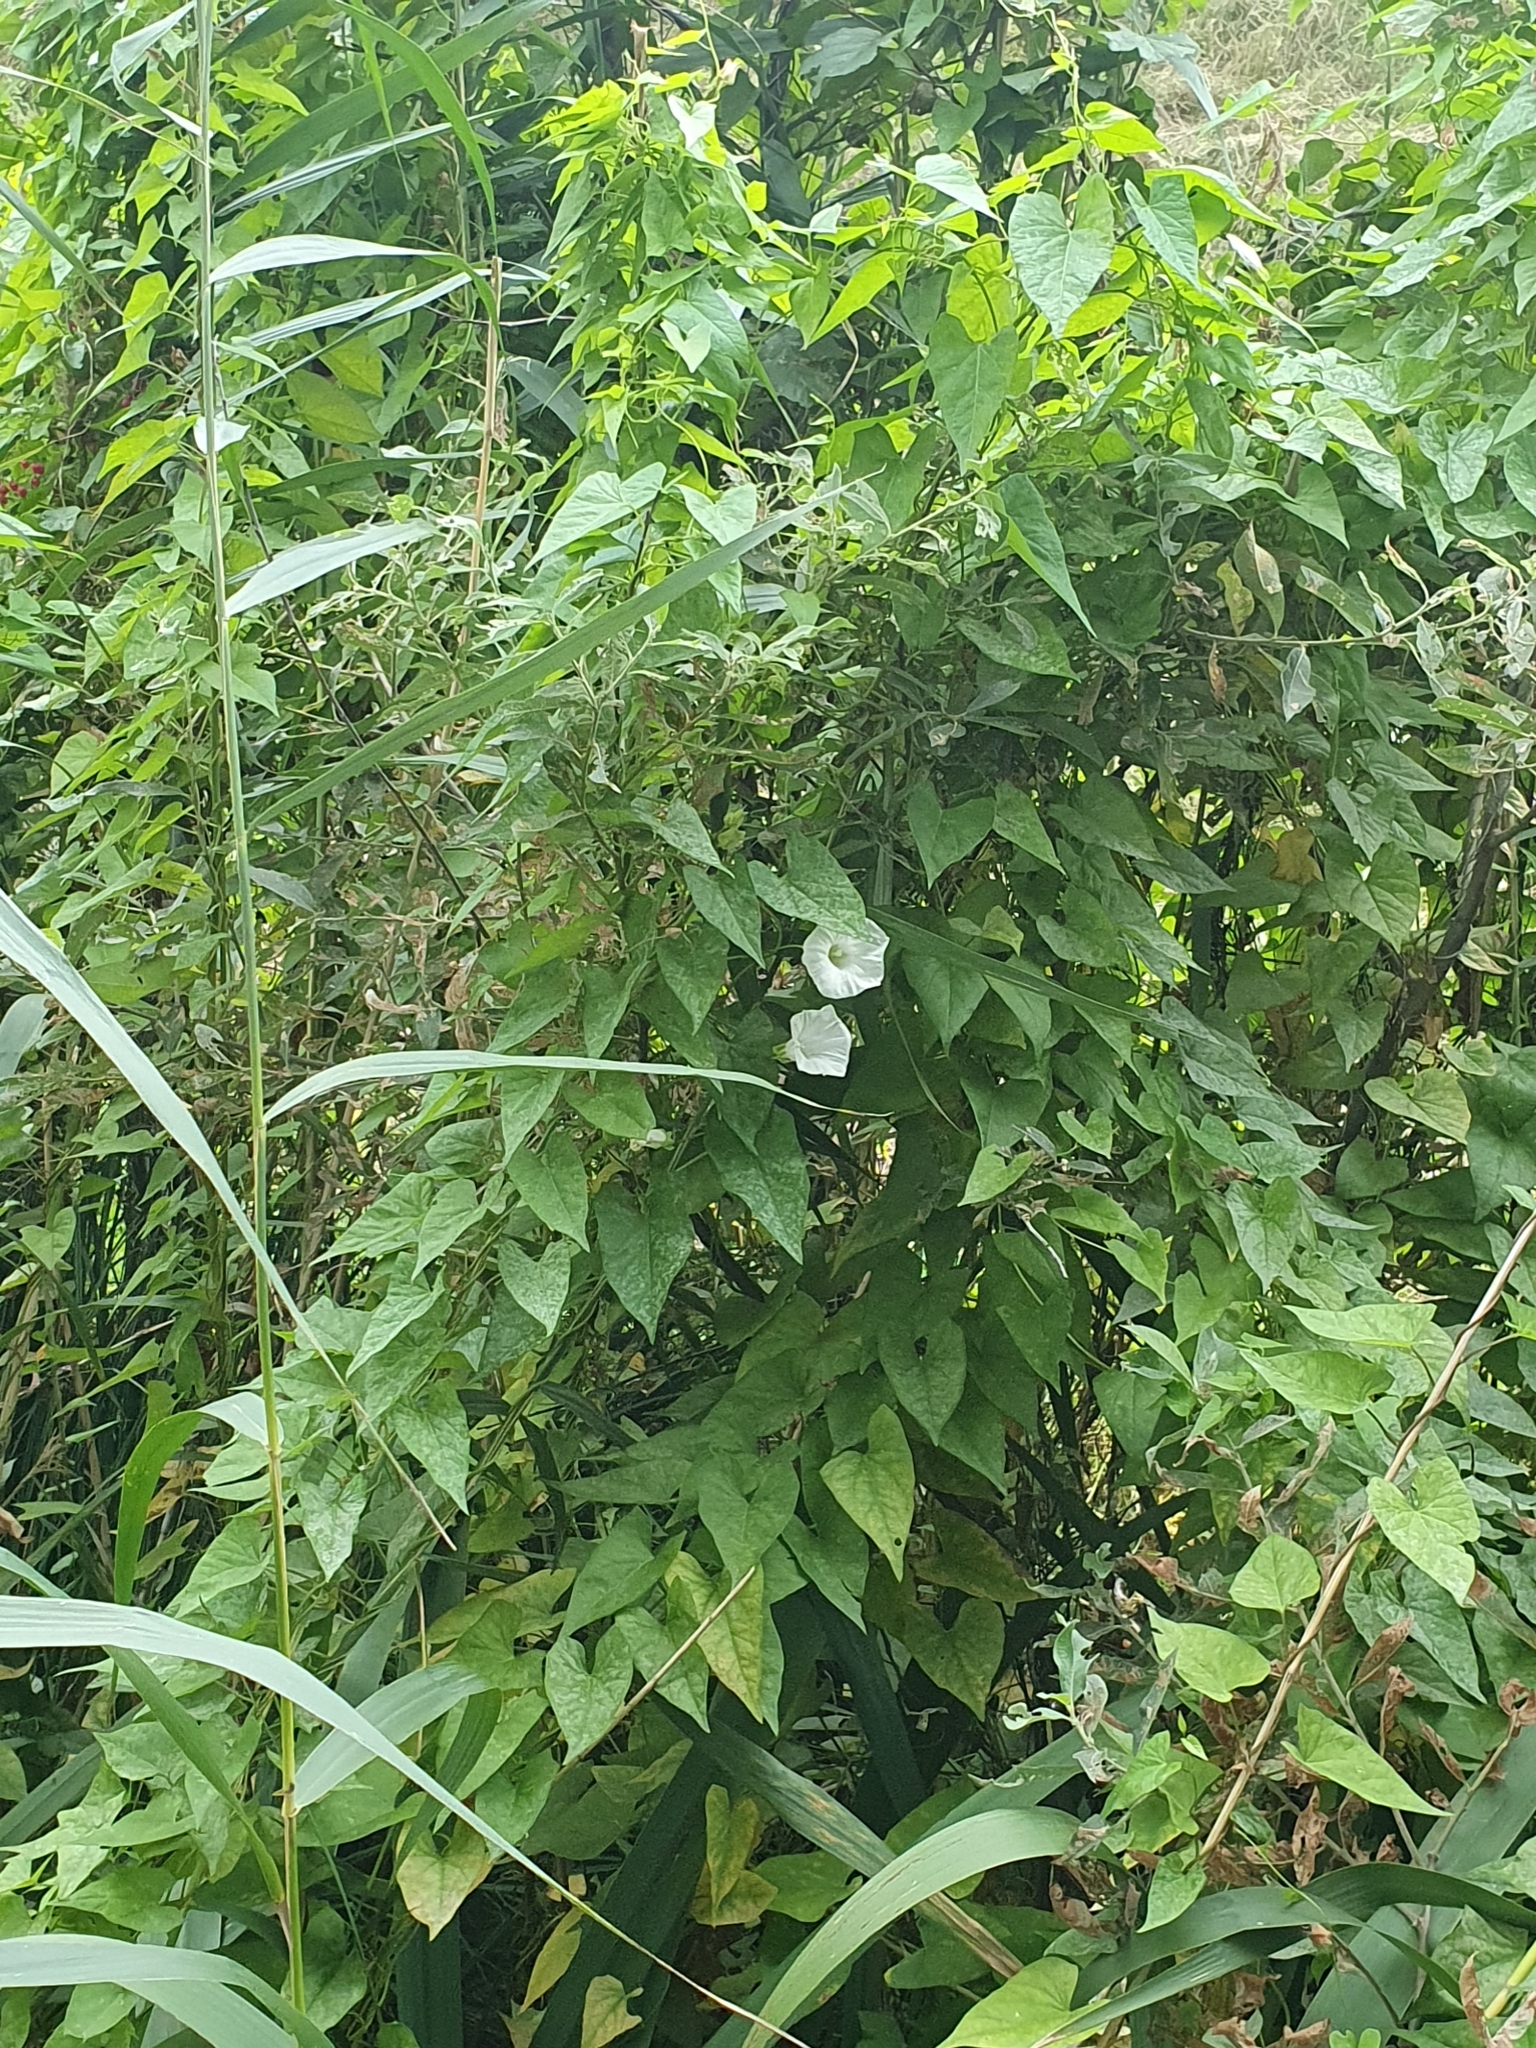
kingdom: Plantae
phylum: Tracheophyta
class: Magnoliopsida
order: Solanales
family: Convolvulaceae
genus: Calystegia
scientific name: Calystegia sepium
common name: Hedge bindweed
